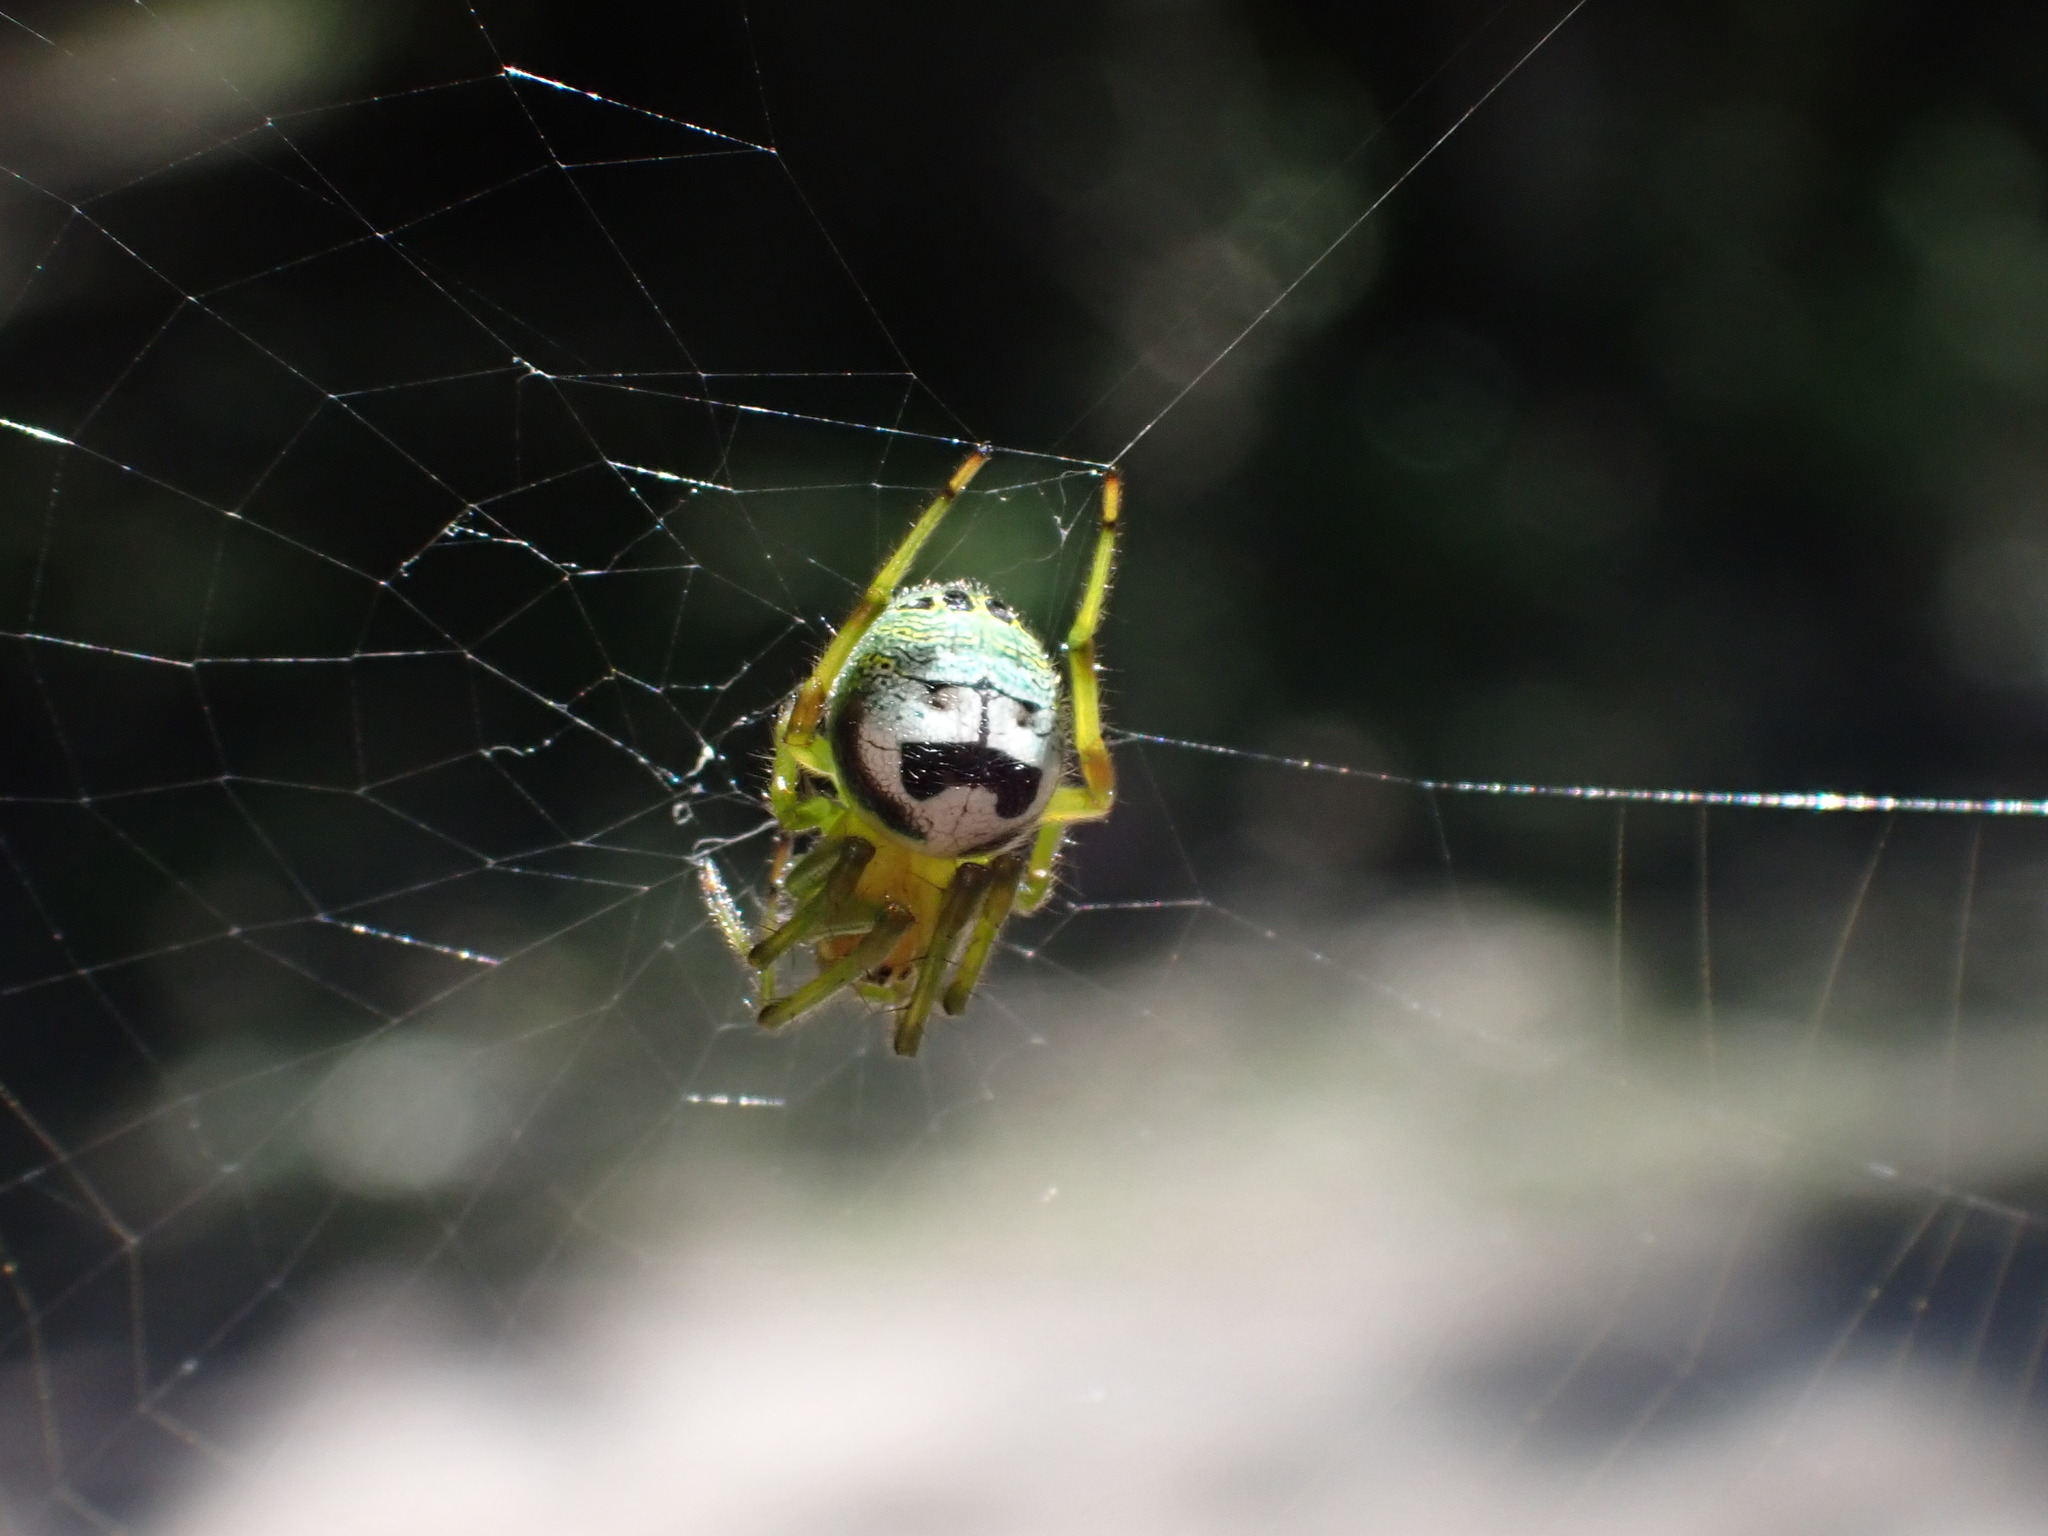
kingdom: Animalia
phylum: Arthropoda
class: Arachnida
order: Araneae
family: Araneidae
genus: Bijoaraneus
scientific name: Bijoaraneus legonensis
